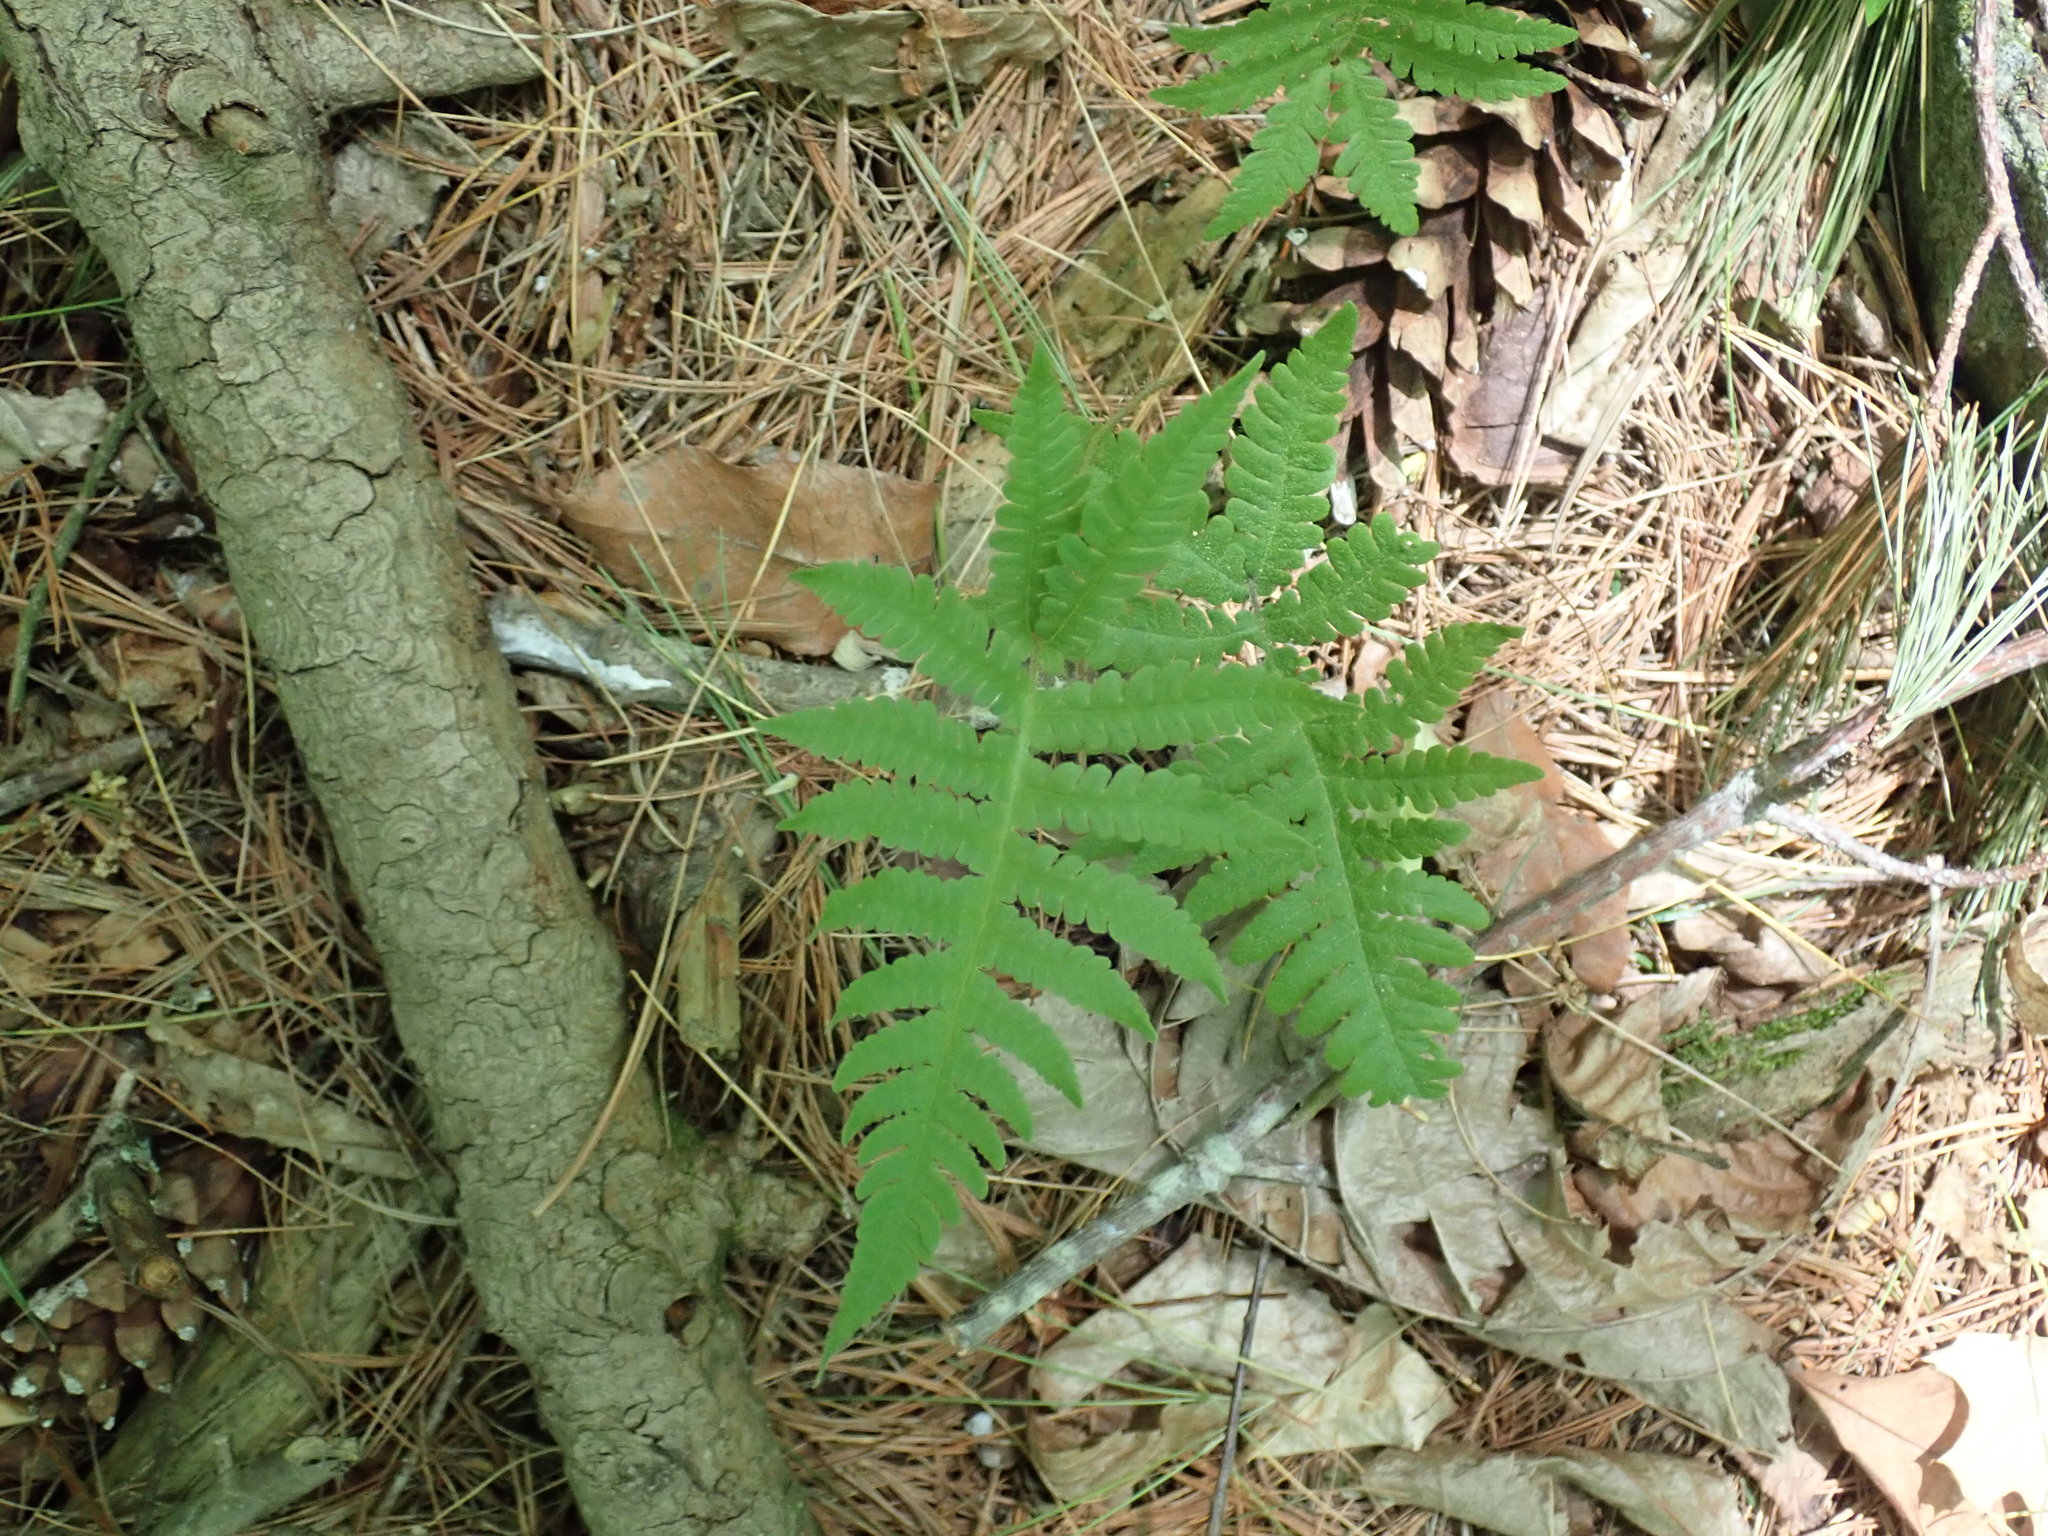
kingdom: Plantae
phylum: Tracheophyta
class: Polypodiopsida
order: Polypodiales
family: Thelypteridaceae
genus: Phegopteris
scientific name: Phegopteris connectilis
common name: Beech fern
